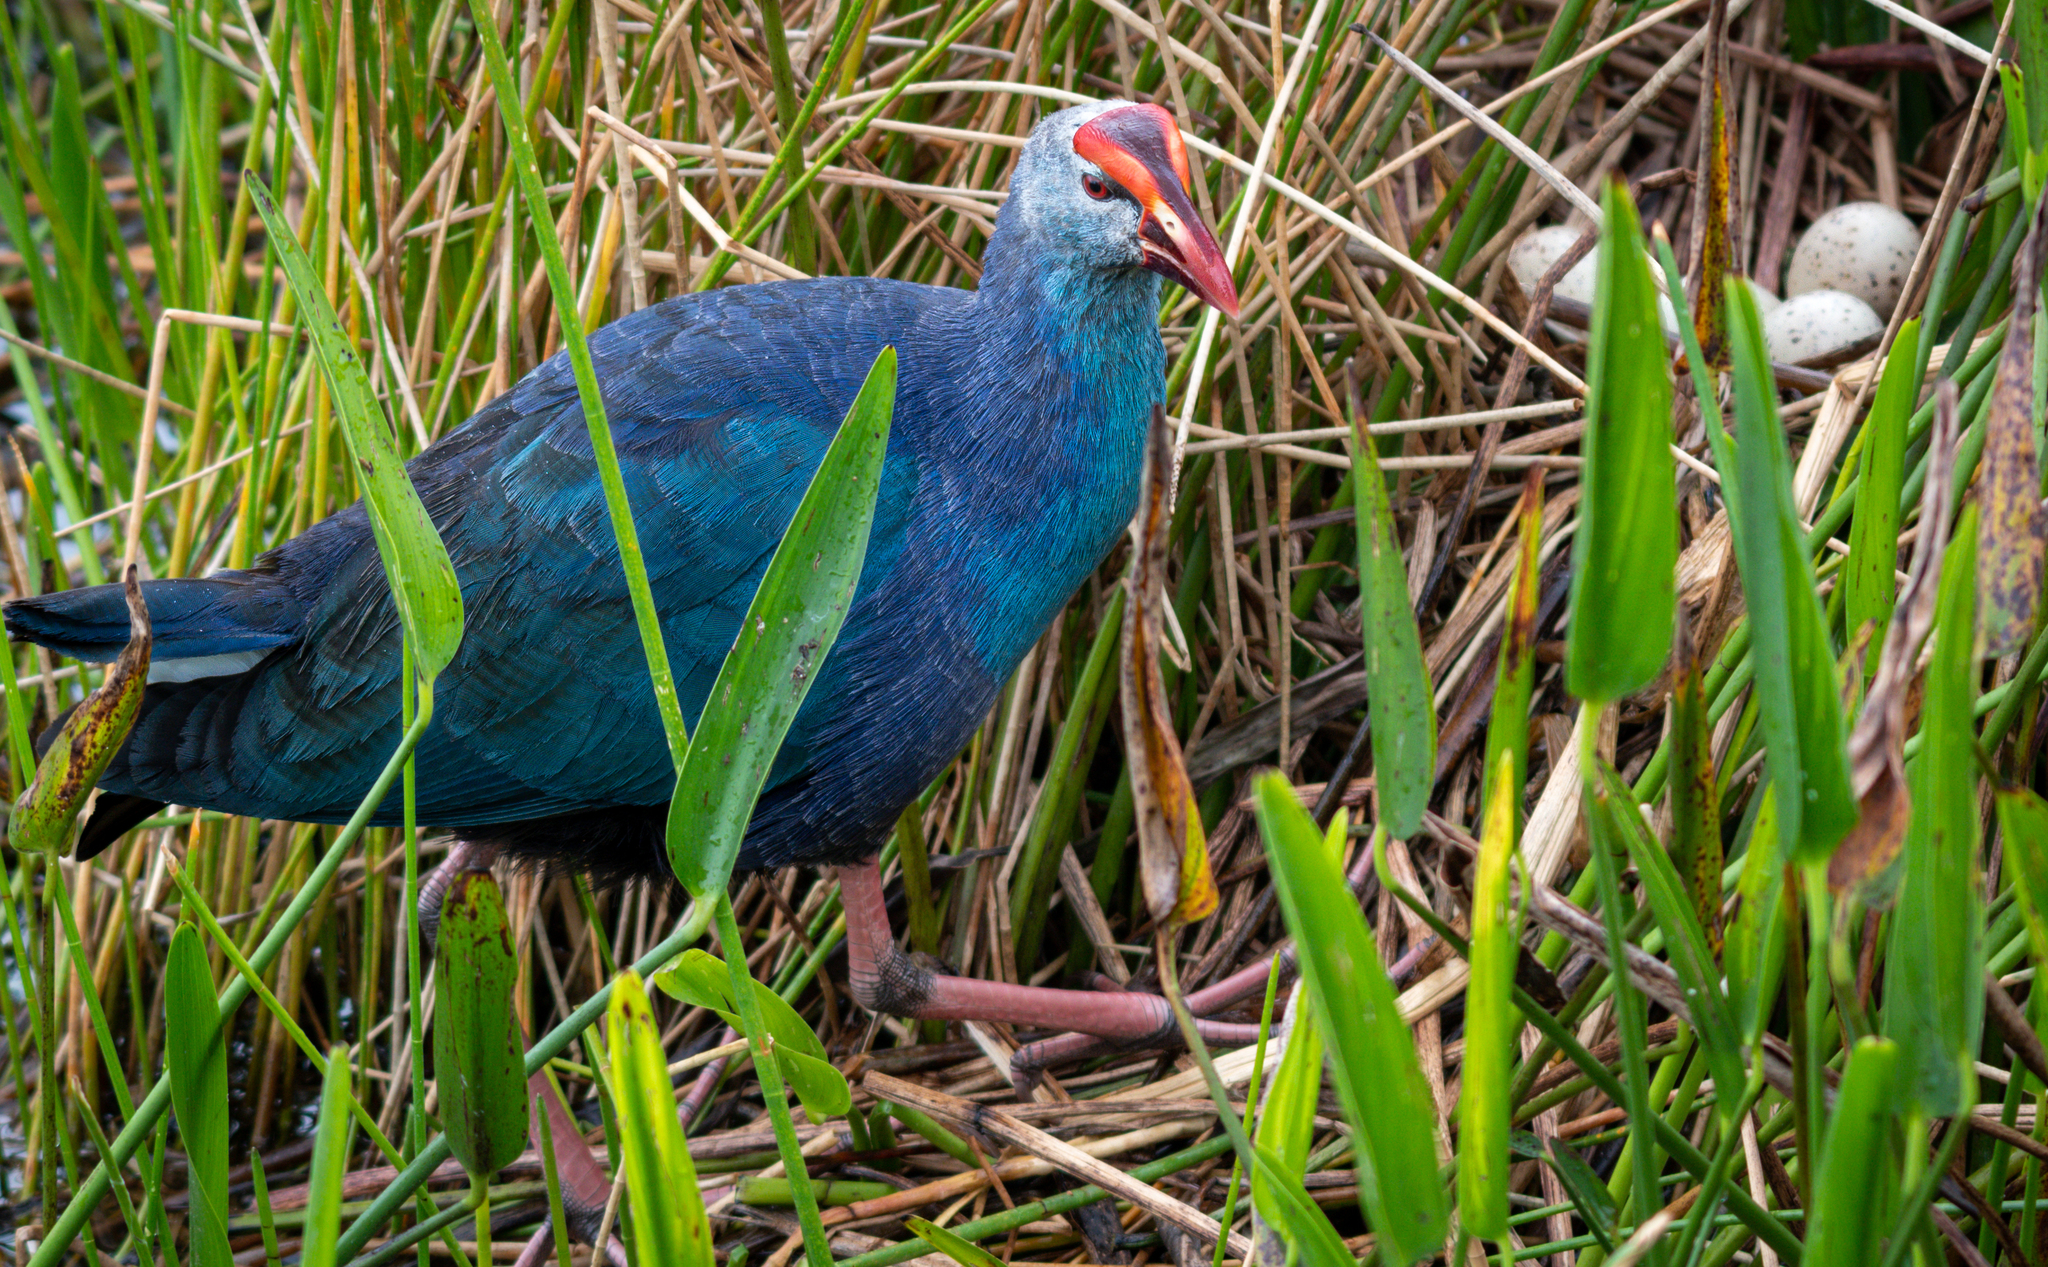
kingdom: Animalia
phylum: Chordata
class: Aves
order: Gruiformes
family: Rallidae
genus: Porphyrio
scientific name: Porphyrio porphyrio
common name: Purple swamphen
